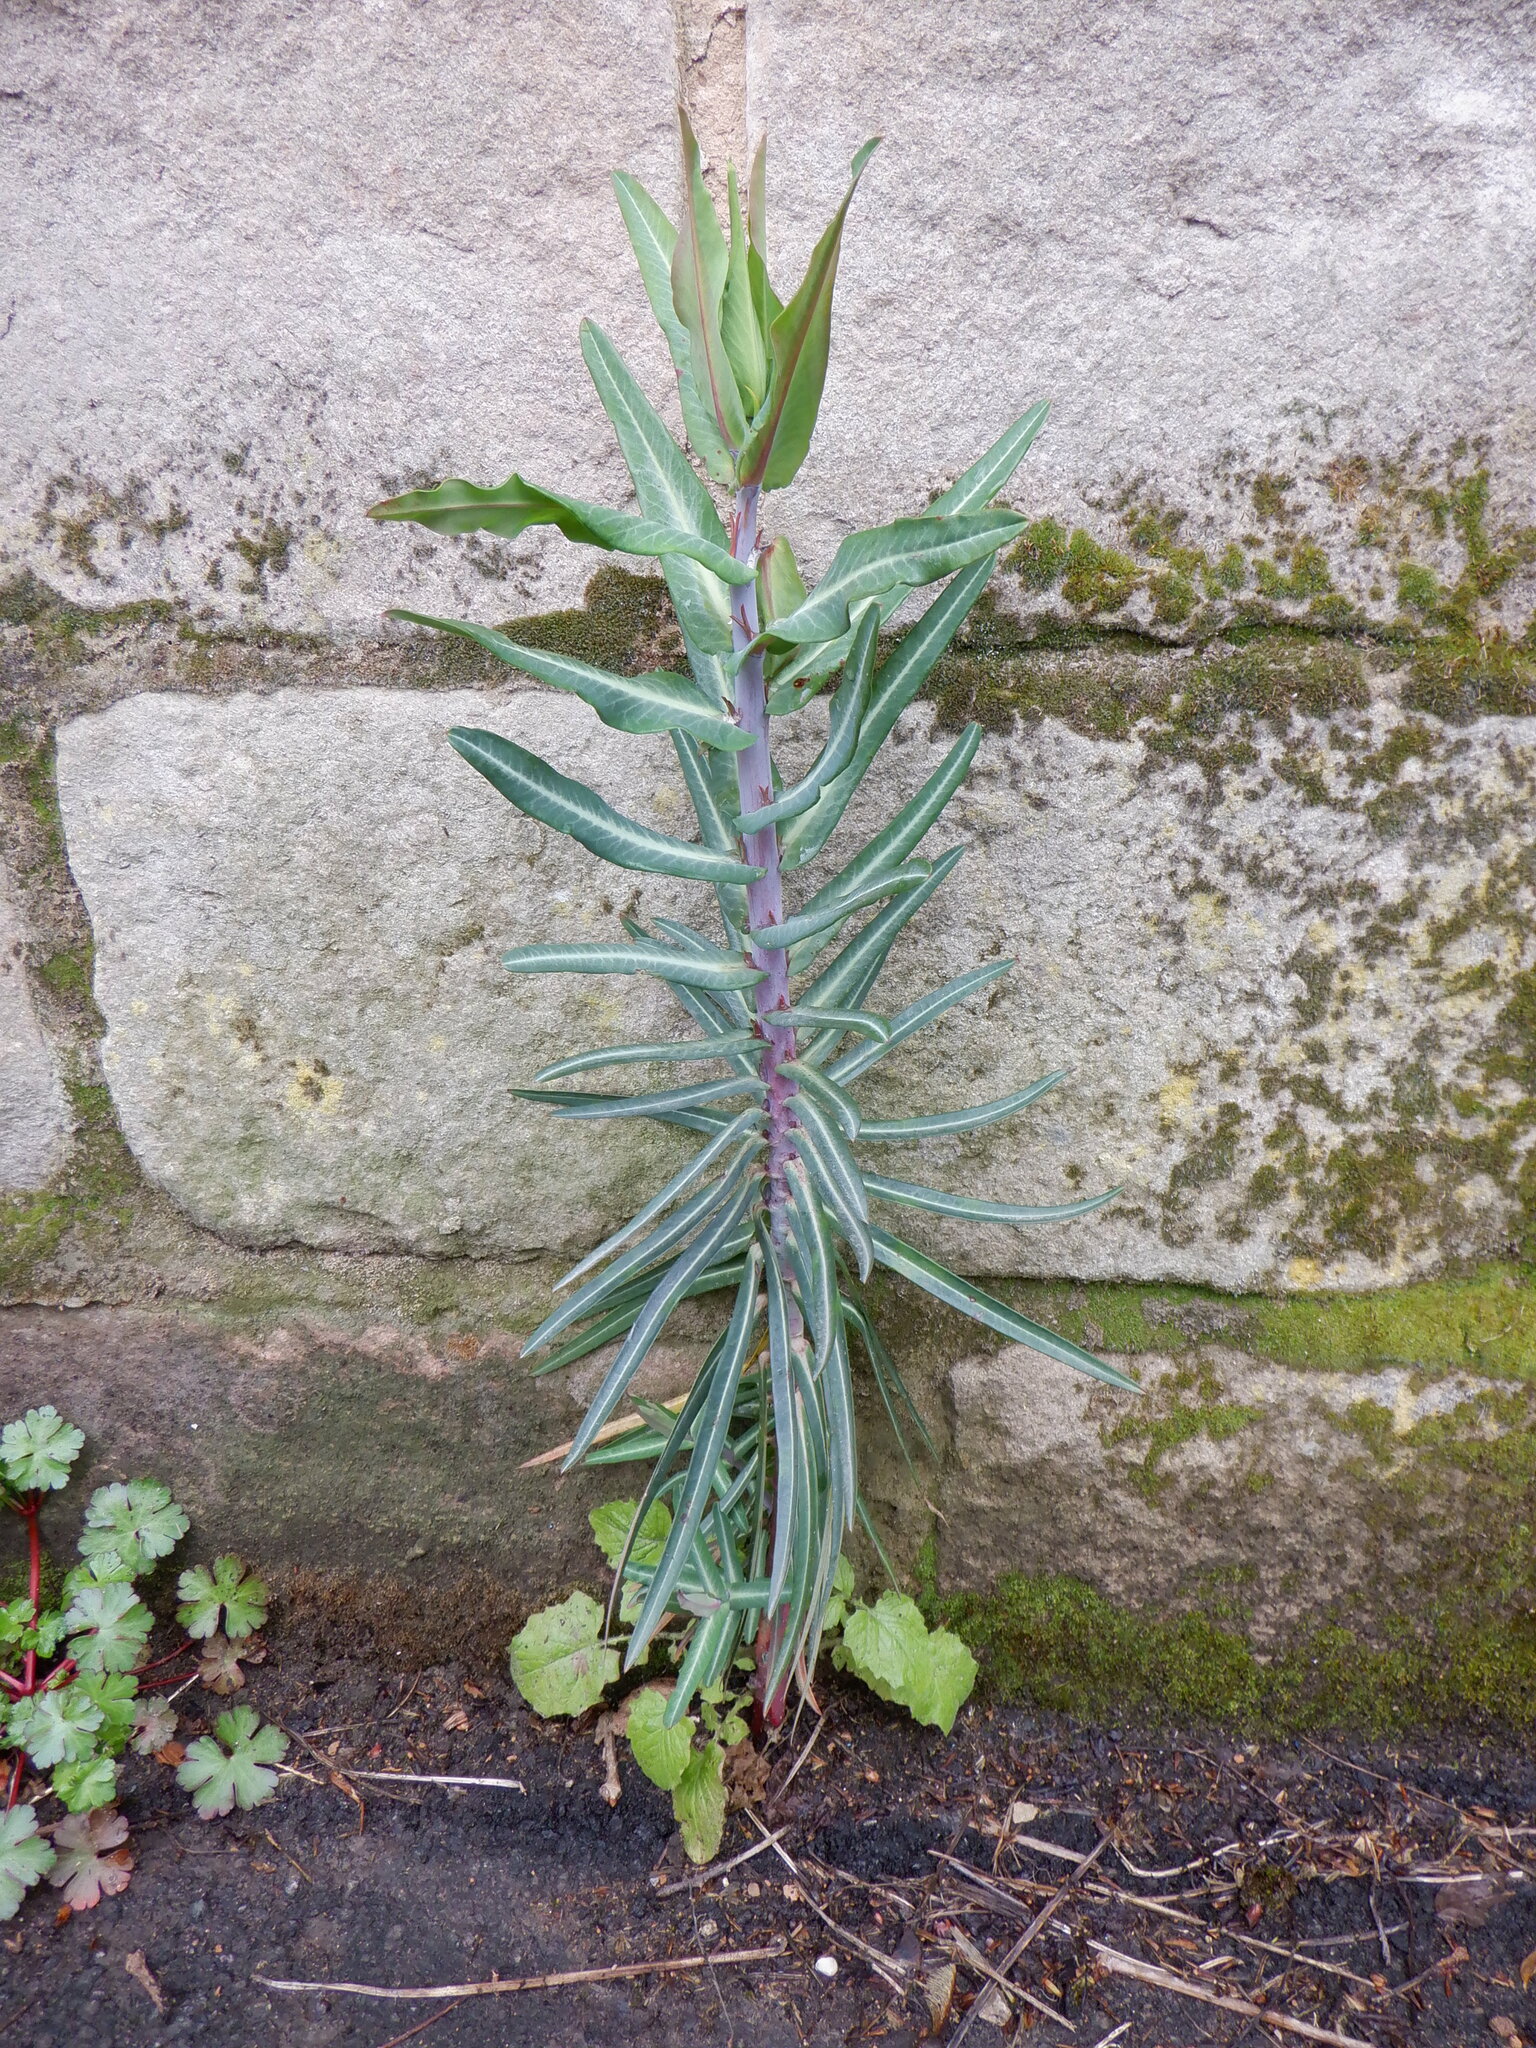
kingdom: Plantae
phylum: Tracheophyta
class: Magnoliopsida
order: Malpighiales
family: Euphorbiaceae
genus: Euphorbia
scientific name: Euphorbia lathyris
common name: Caper spurge
